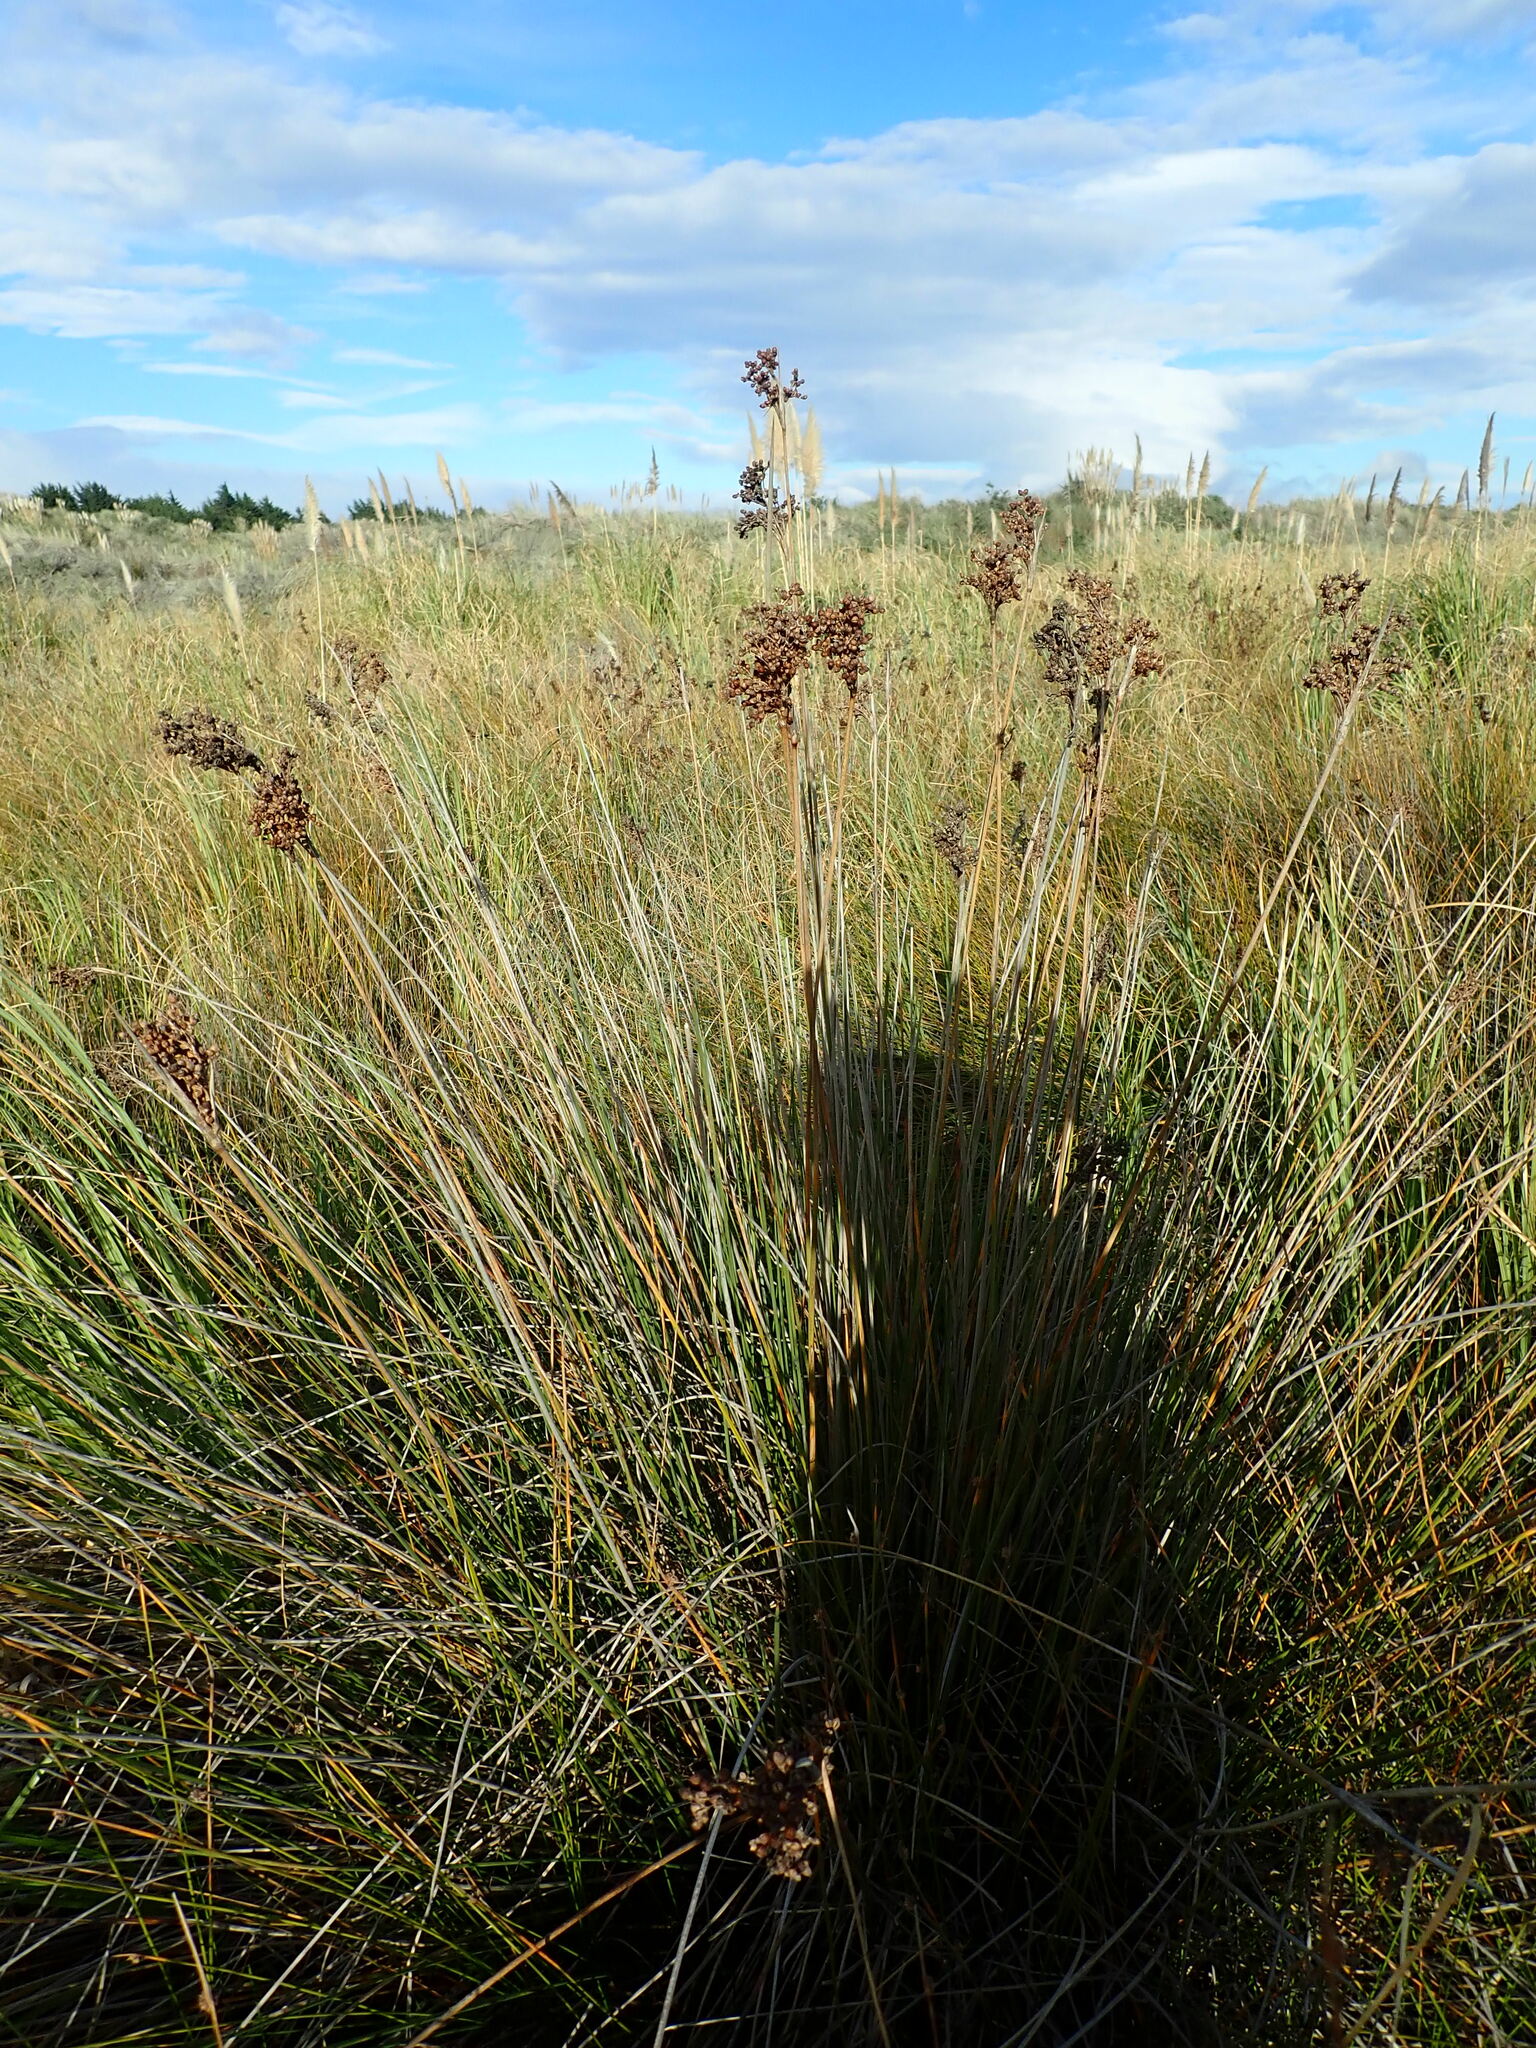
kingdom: Plantae
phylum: Tracheophyta
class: Liliopsida
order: Poales
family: Juncaceae
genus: Juncus
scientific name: Juncus acutus
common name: Sharp rush
